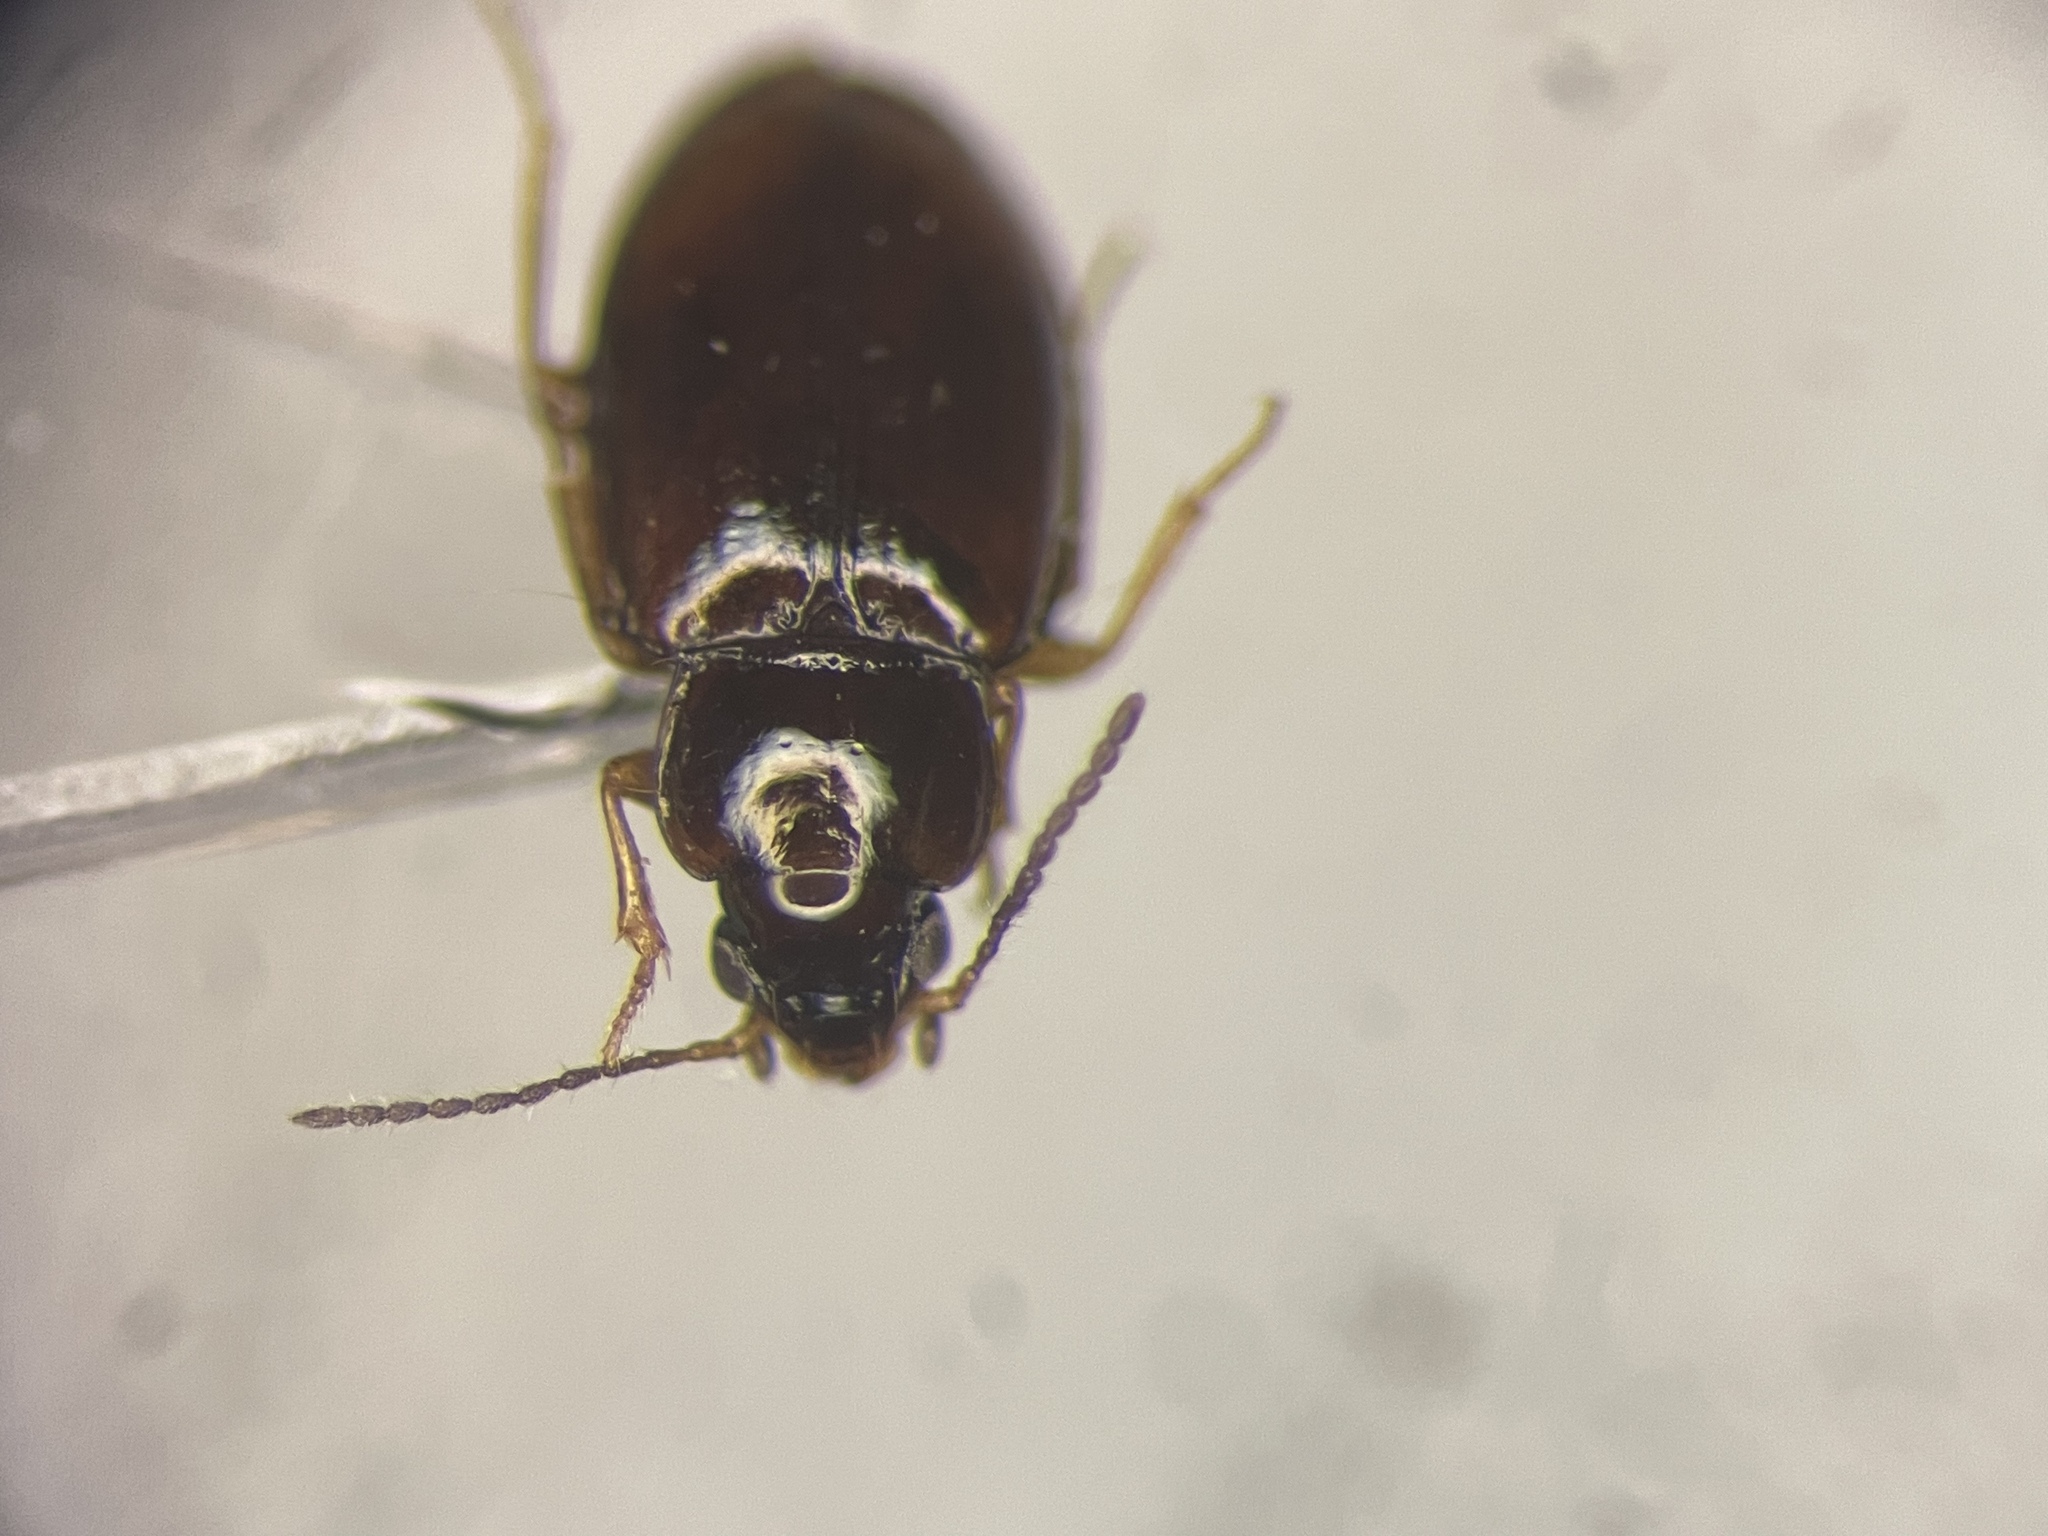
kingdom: Animalia
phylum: Arthropoda
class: Insecta
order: Coleoptera
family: Carabidae
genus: Elaphropus
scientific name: Elaphropus saturatus
